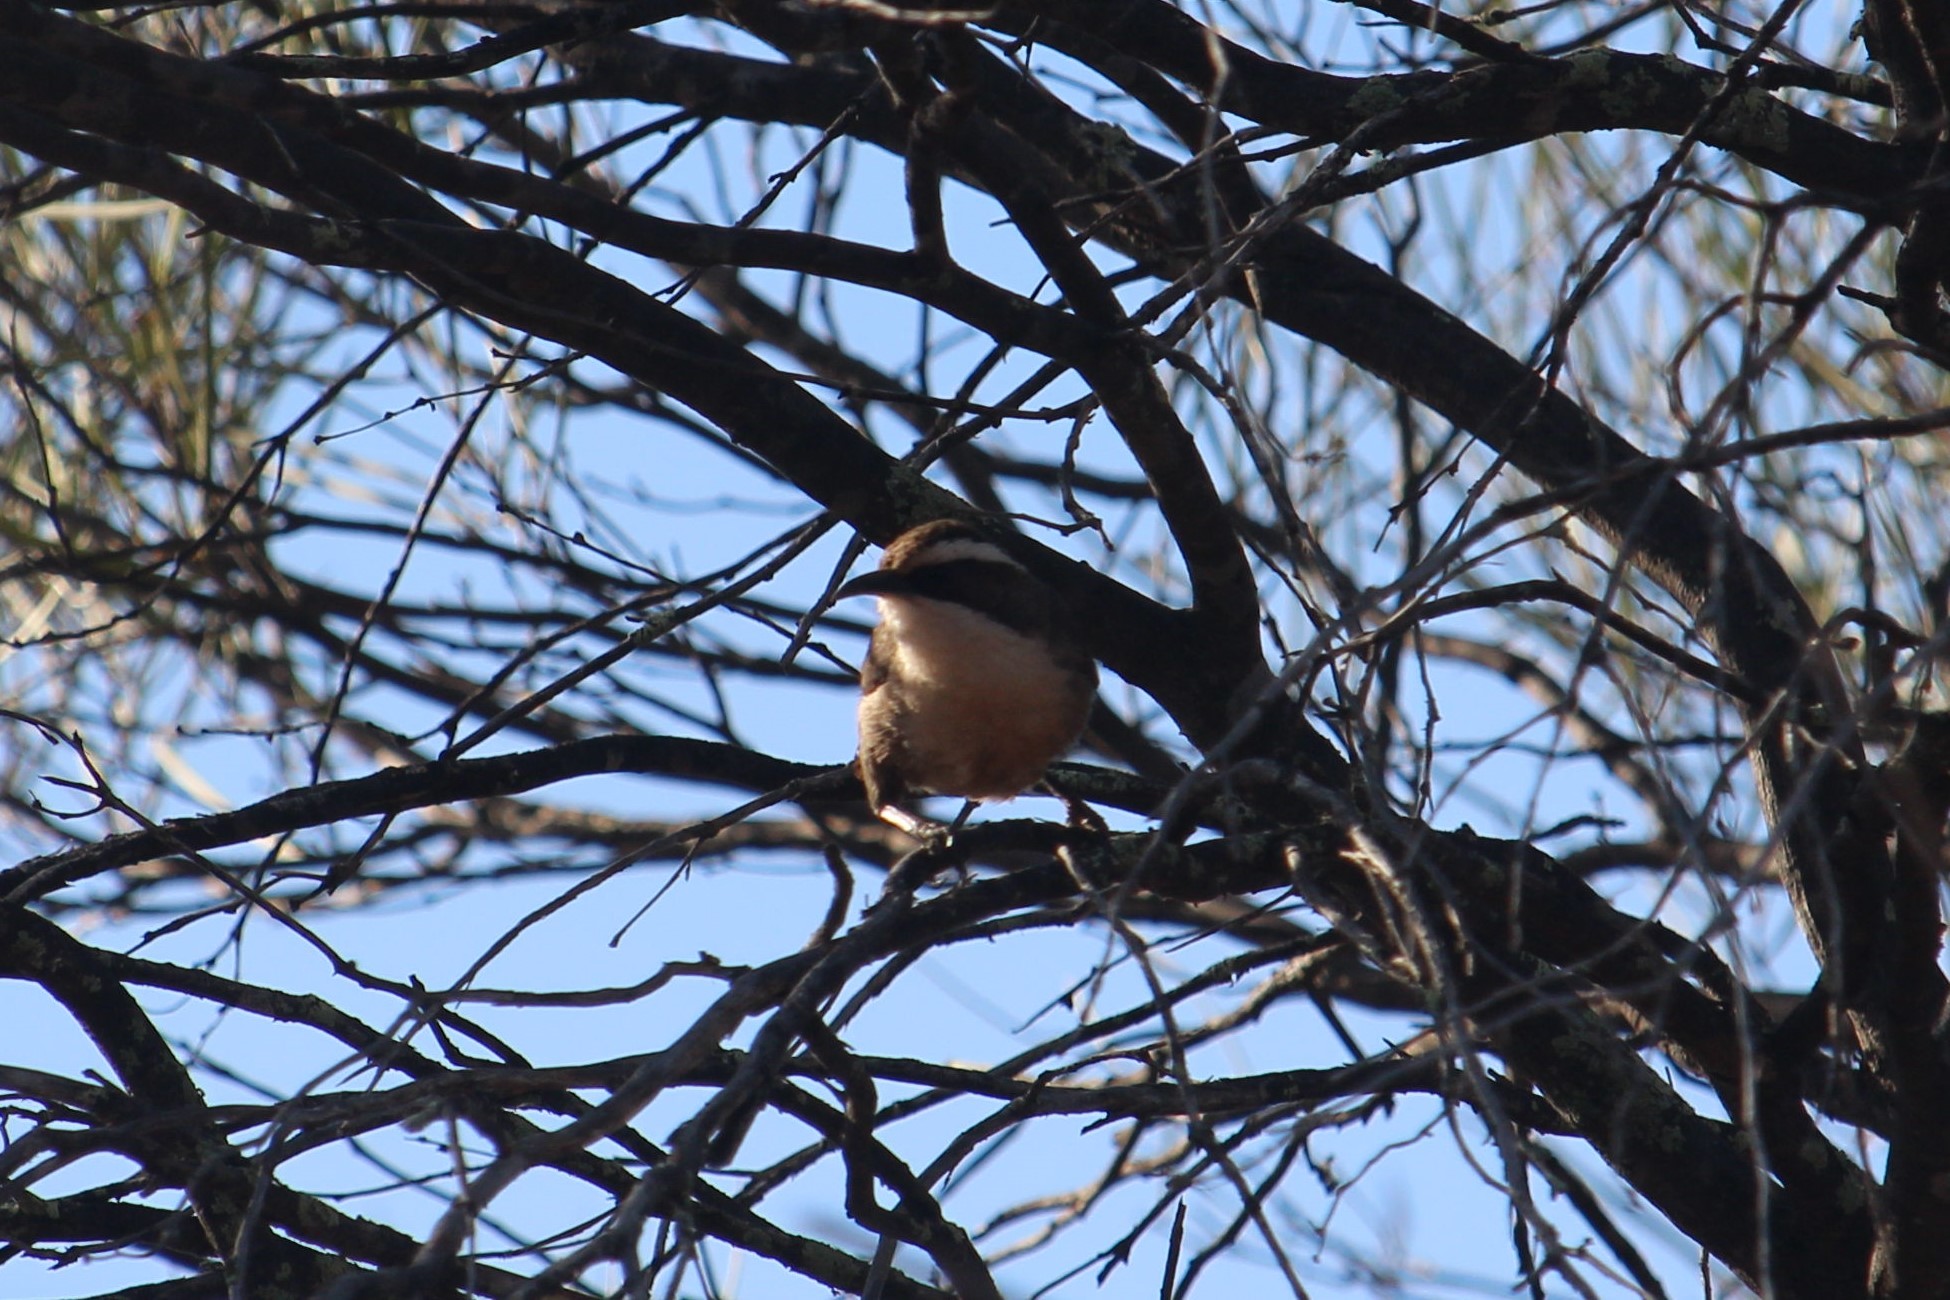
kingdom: Animalia
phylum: Chordata
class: Aves
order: Passeriformes
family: Pomatostomidae
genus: Pomatostomus
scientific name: Pomatostomus superciliosus
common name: White-browed babbler
